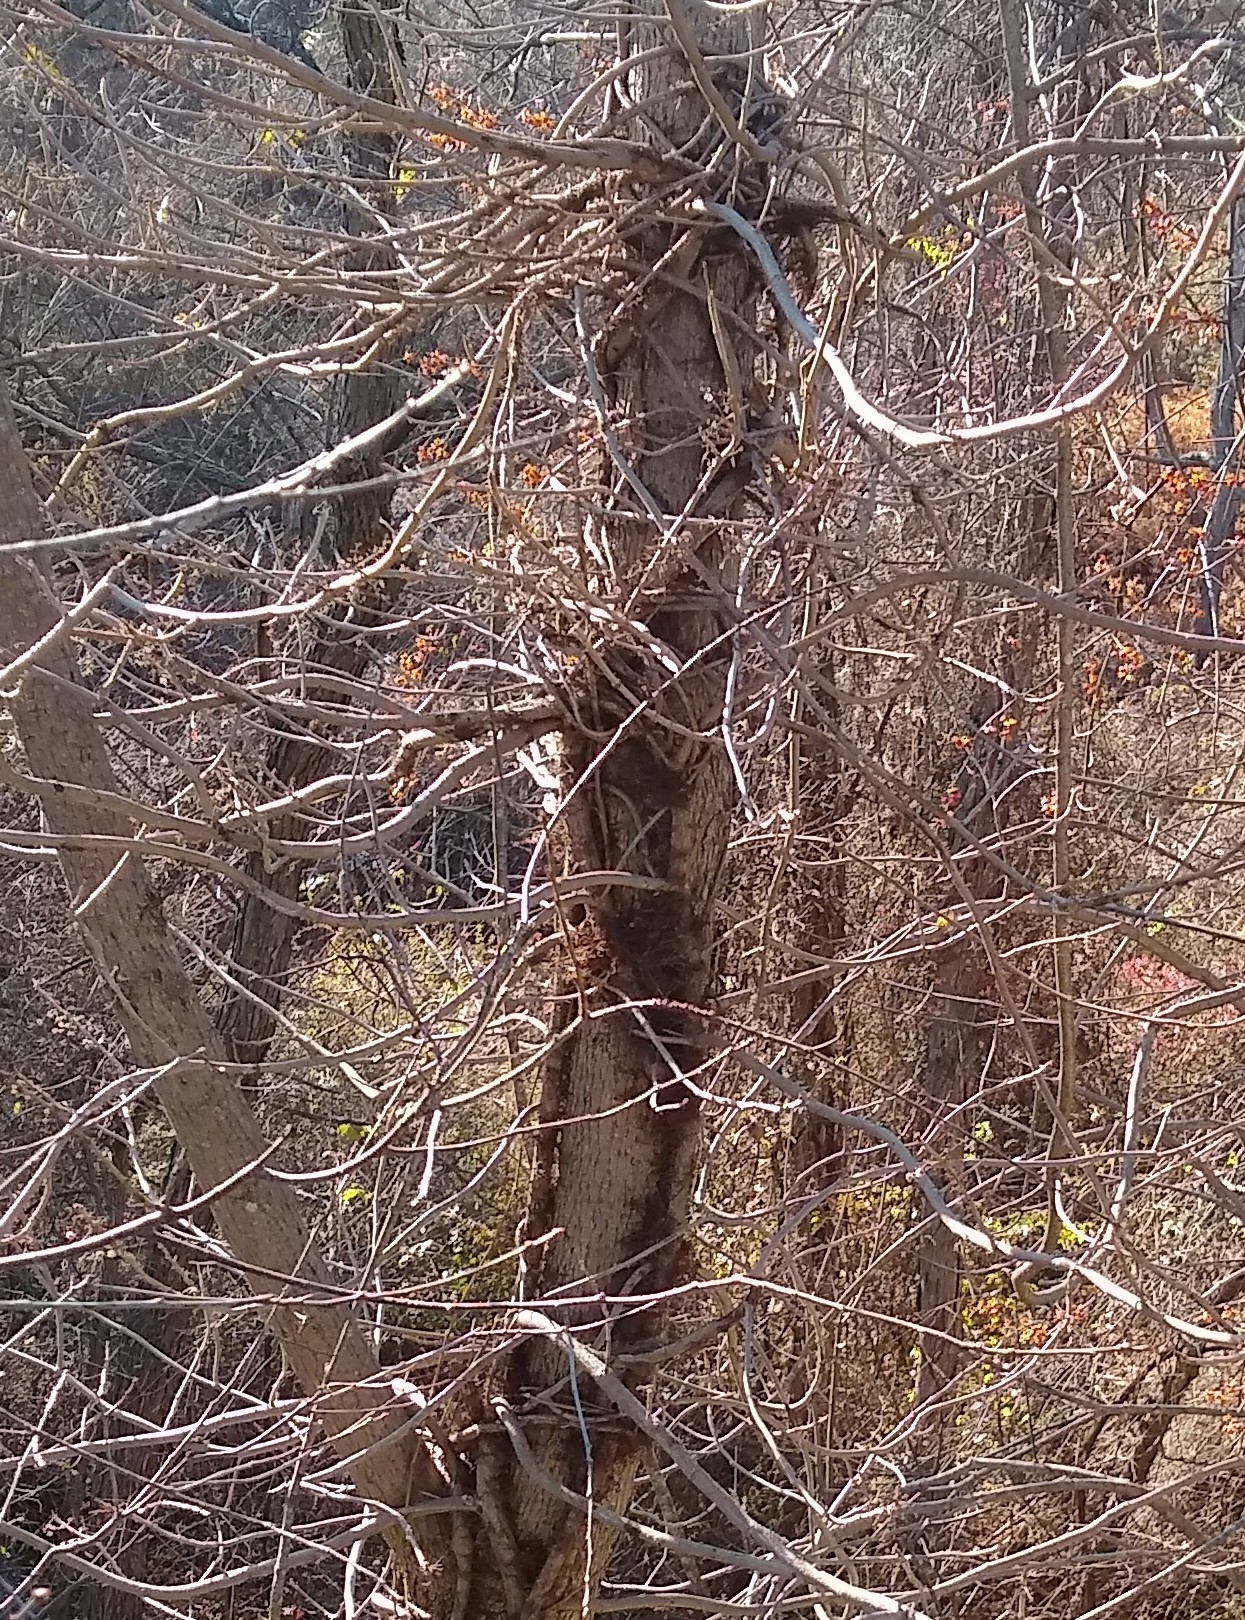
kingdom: Plantae
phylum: Tracheophyta
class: Magnoliopsida
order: Sapindales
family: Anacardiaceae
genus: Toxicodendron
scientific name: Toxicodendron radicans
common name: Poison ivy
